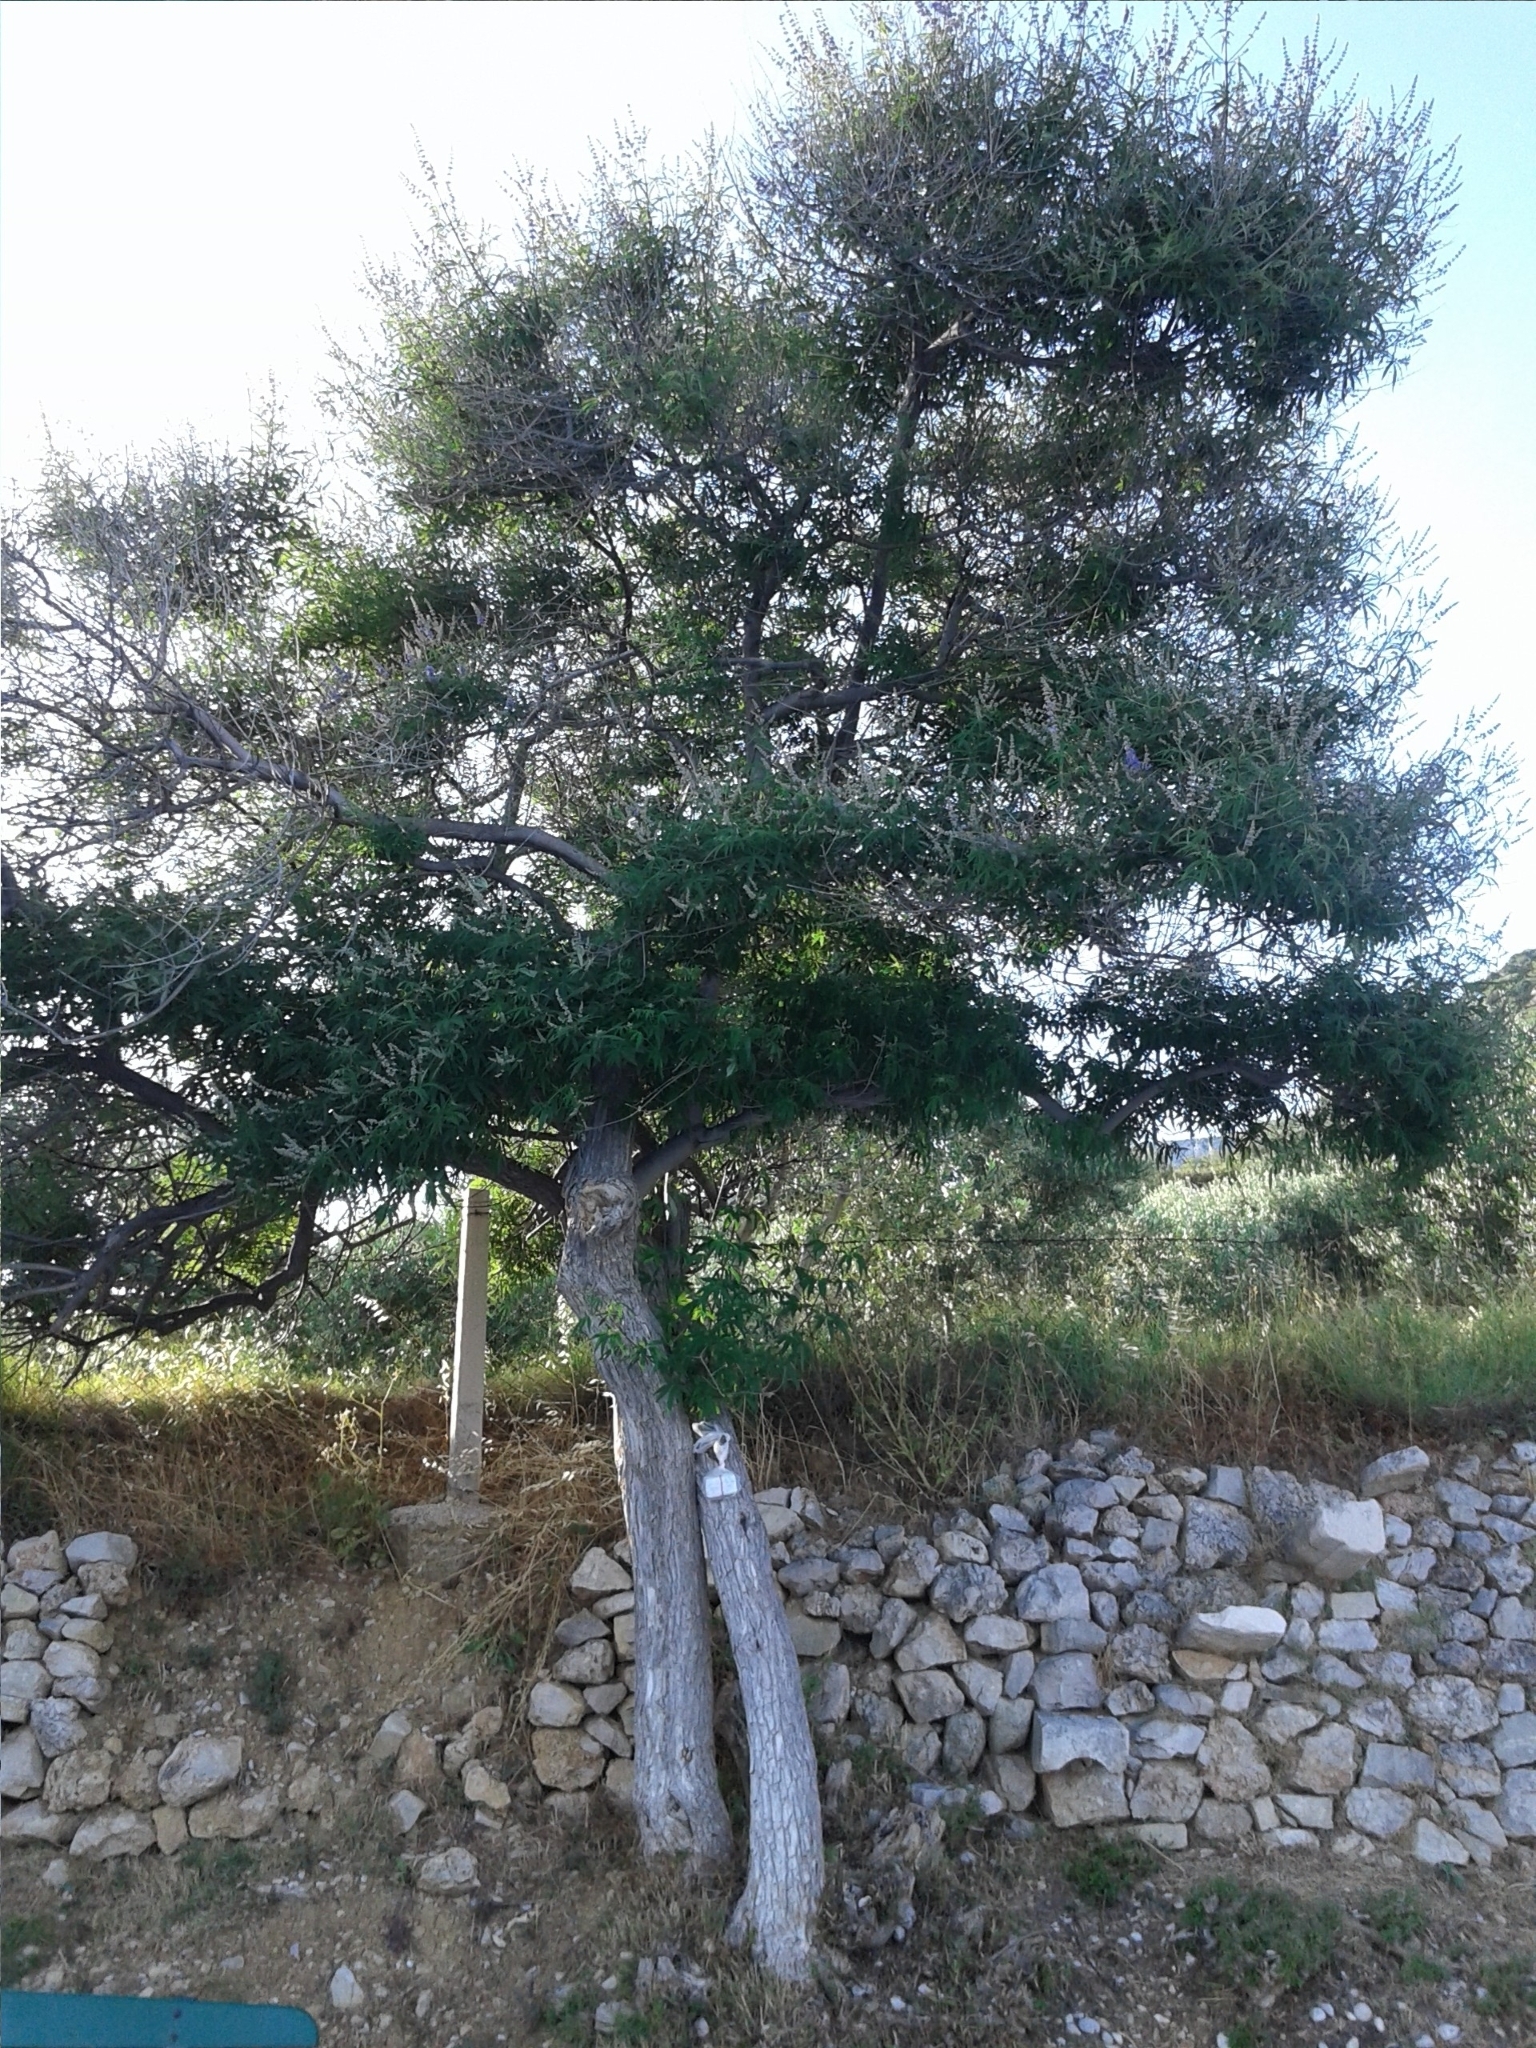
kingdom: Plantae
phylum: Tracheophyta
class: Magnoliopsida
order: Lamiales
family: Lamiaceae
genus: Vitex
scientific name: Vitex agnus-castus
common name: Chasteberry
